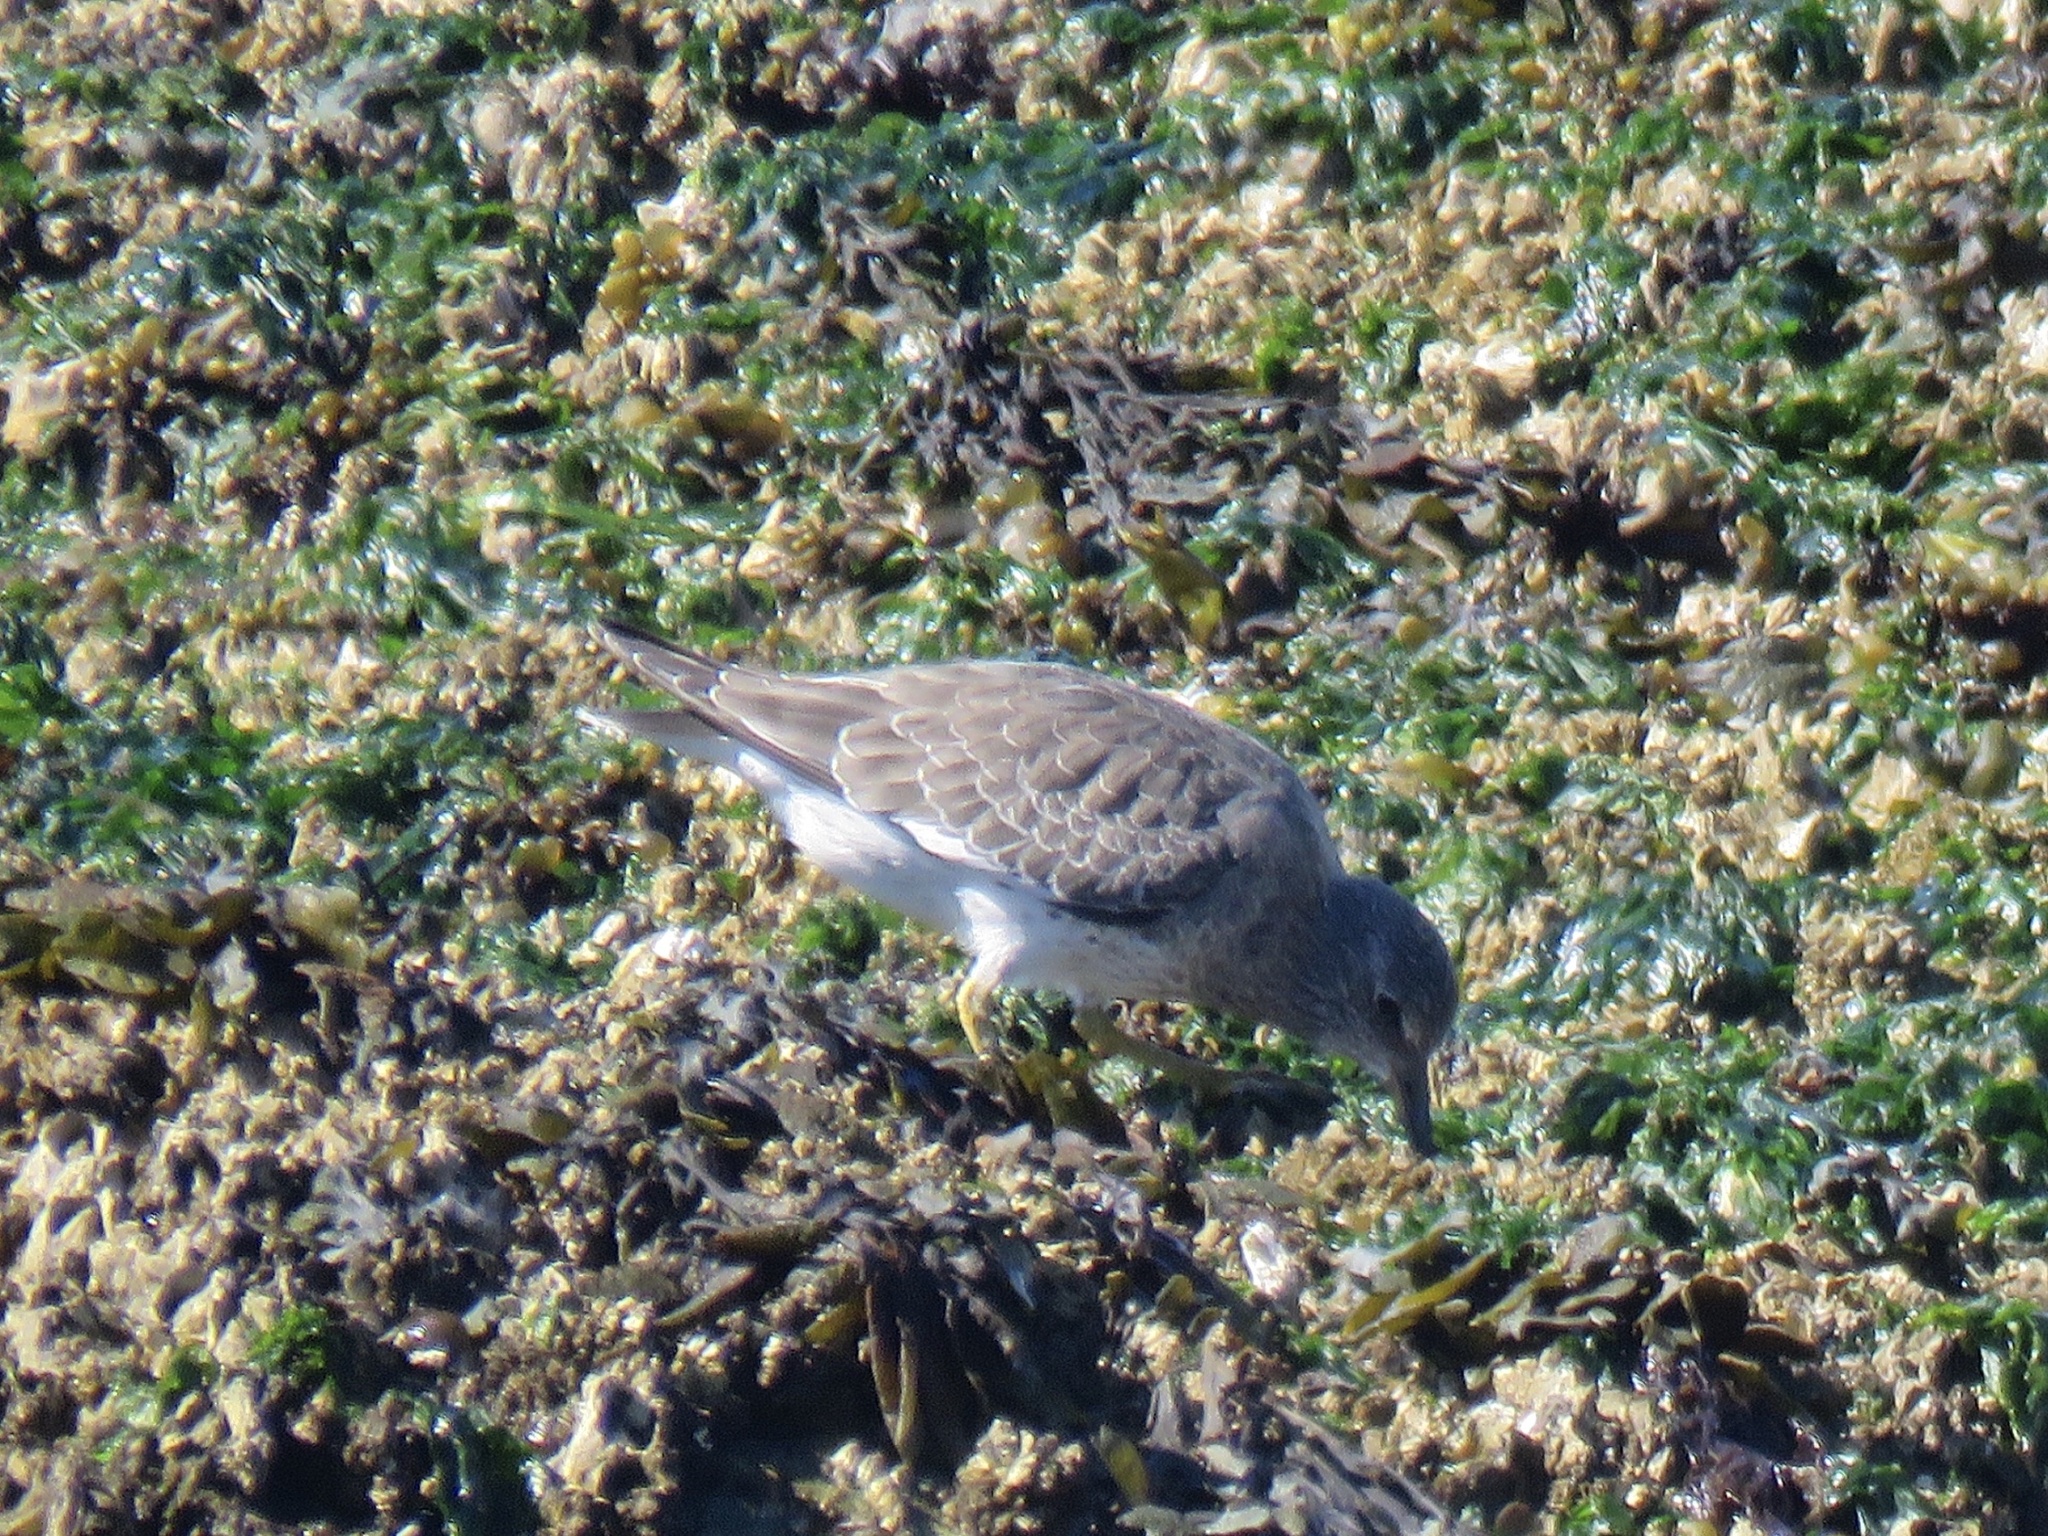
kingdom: Animalia
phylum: Chordata
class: Aves
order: Charadriiformes
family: Scolopacidae
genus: Calidris
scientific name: Calidris virgata
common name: Surfbird
